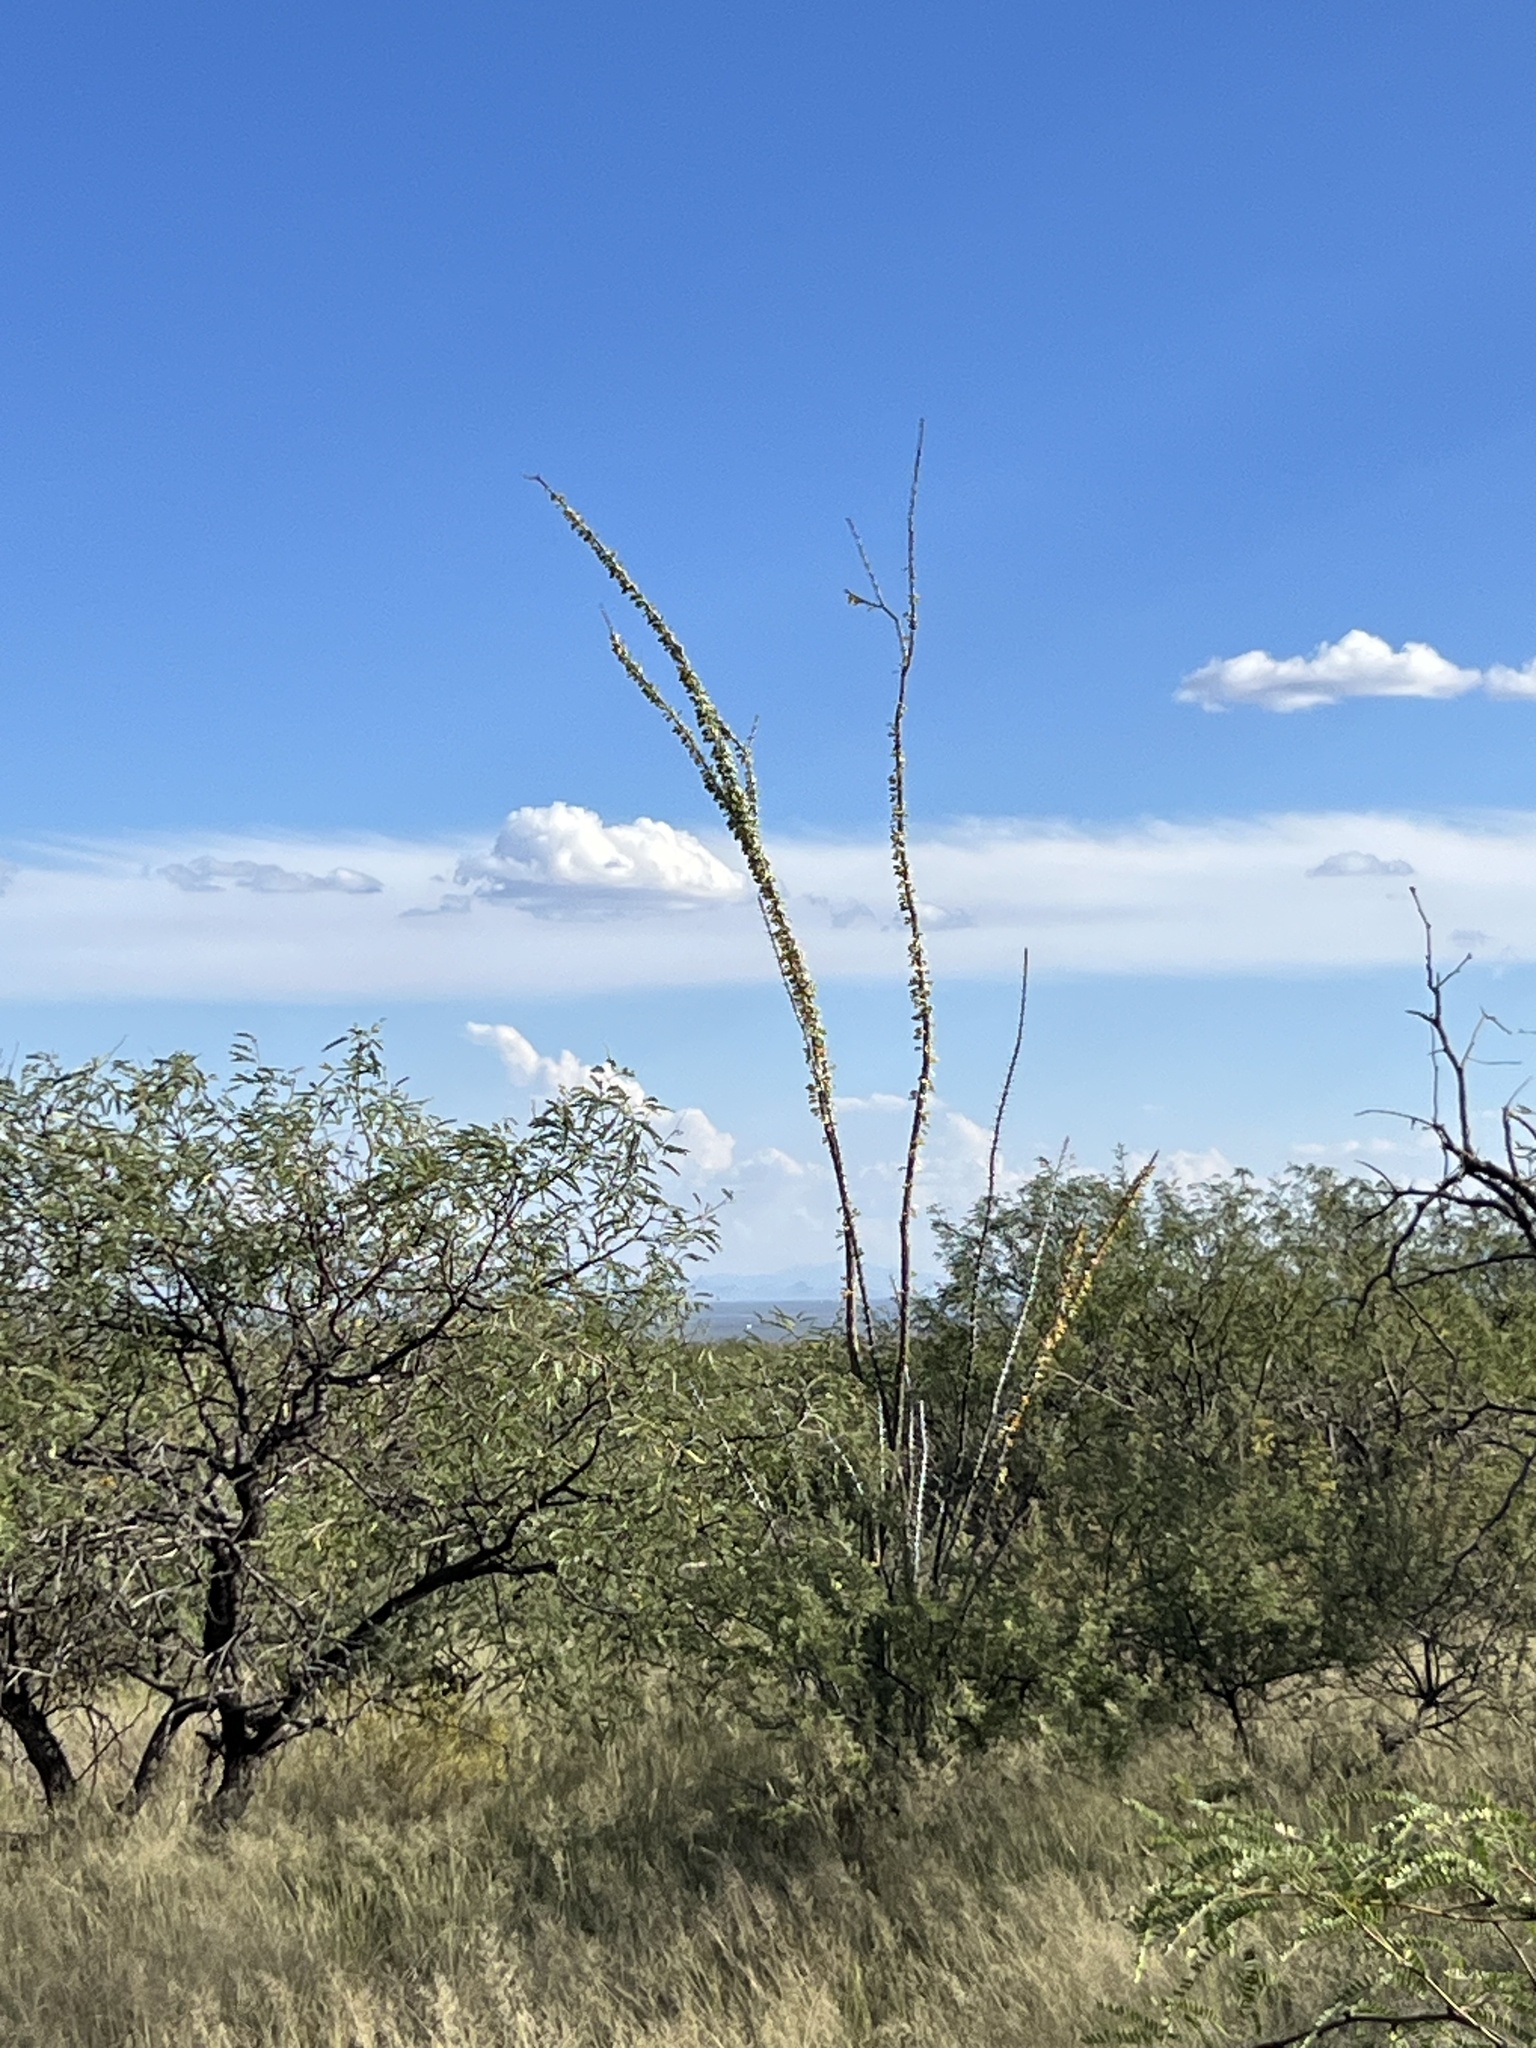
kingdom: Plantae
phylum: Tracheophyta
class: Magnoliopsida
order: Ericales
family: Fouquieriaceae
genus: Fouquieria
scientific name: Fouquieria splendens
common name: Vine-cactus
